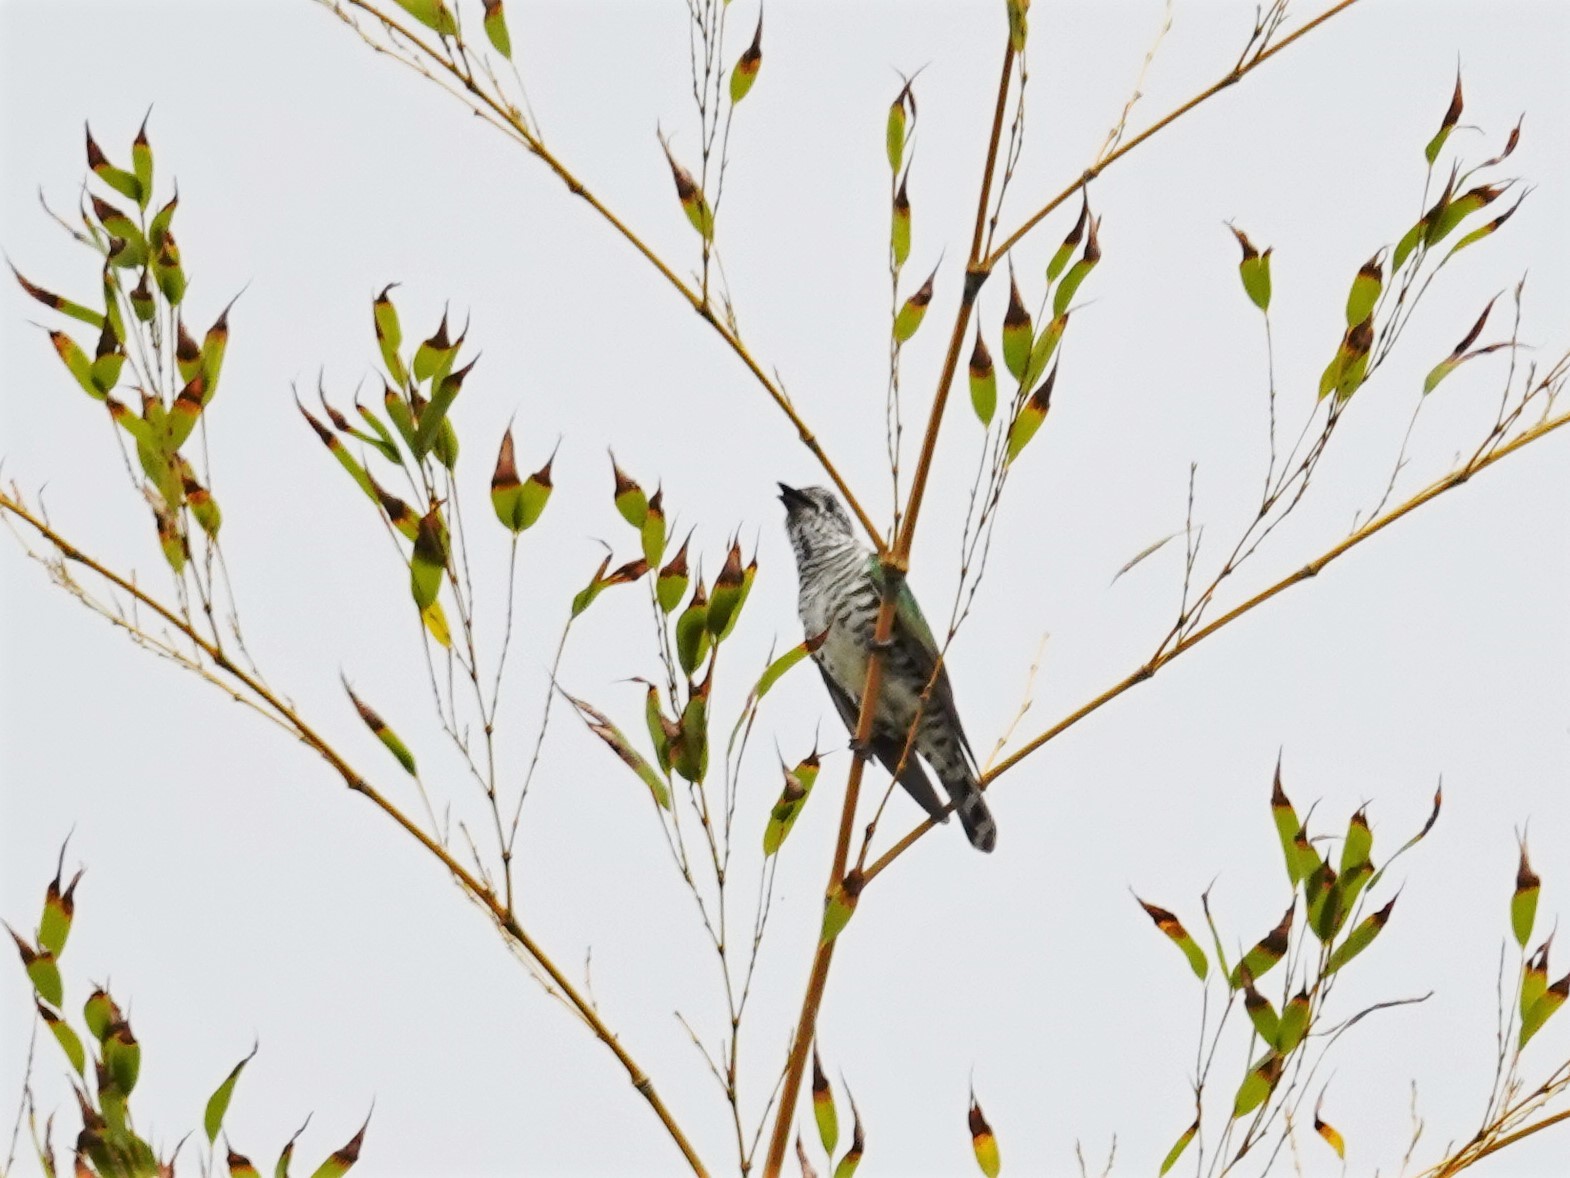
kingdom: Animalia
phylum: Chordata
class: Aves
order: Cuculiformes
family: Cuculidae
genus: Chrysococcyx
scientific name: Chrysococcyx lucidus
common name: Shining bronze cuckoo
